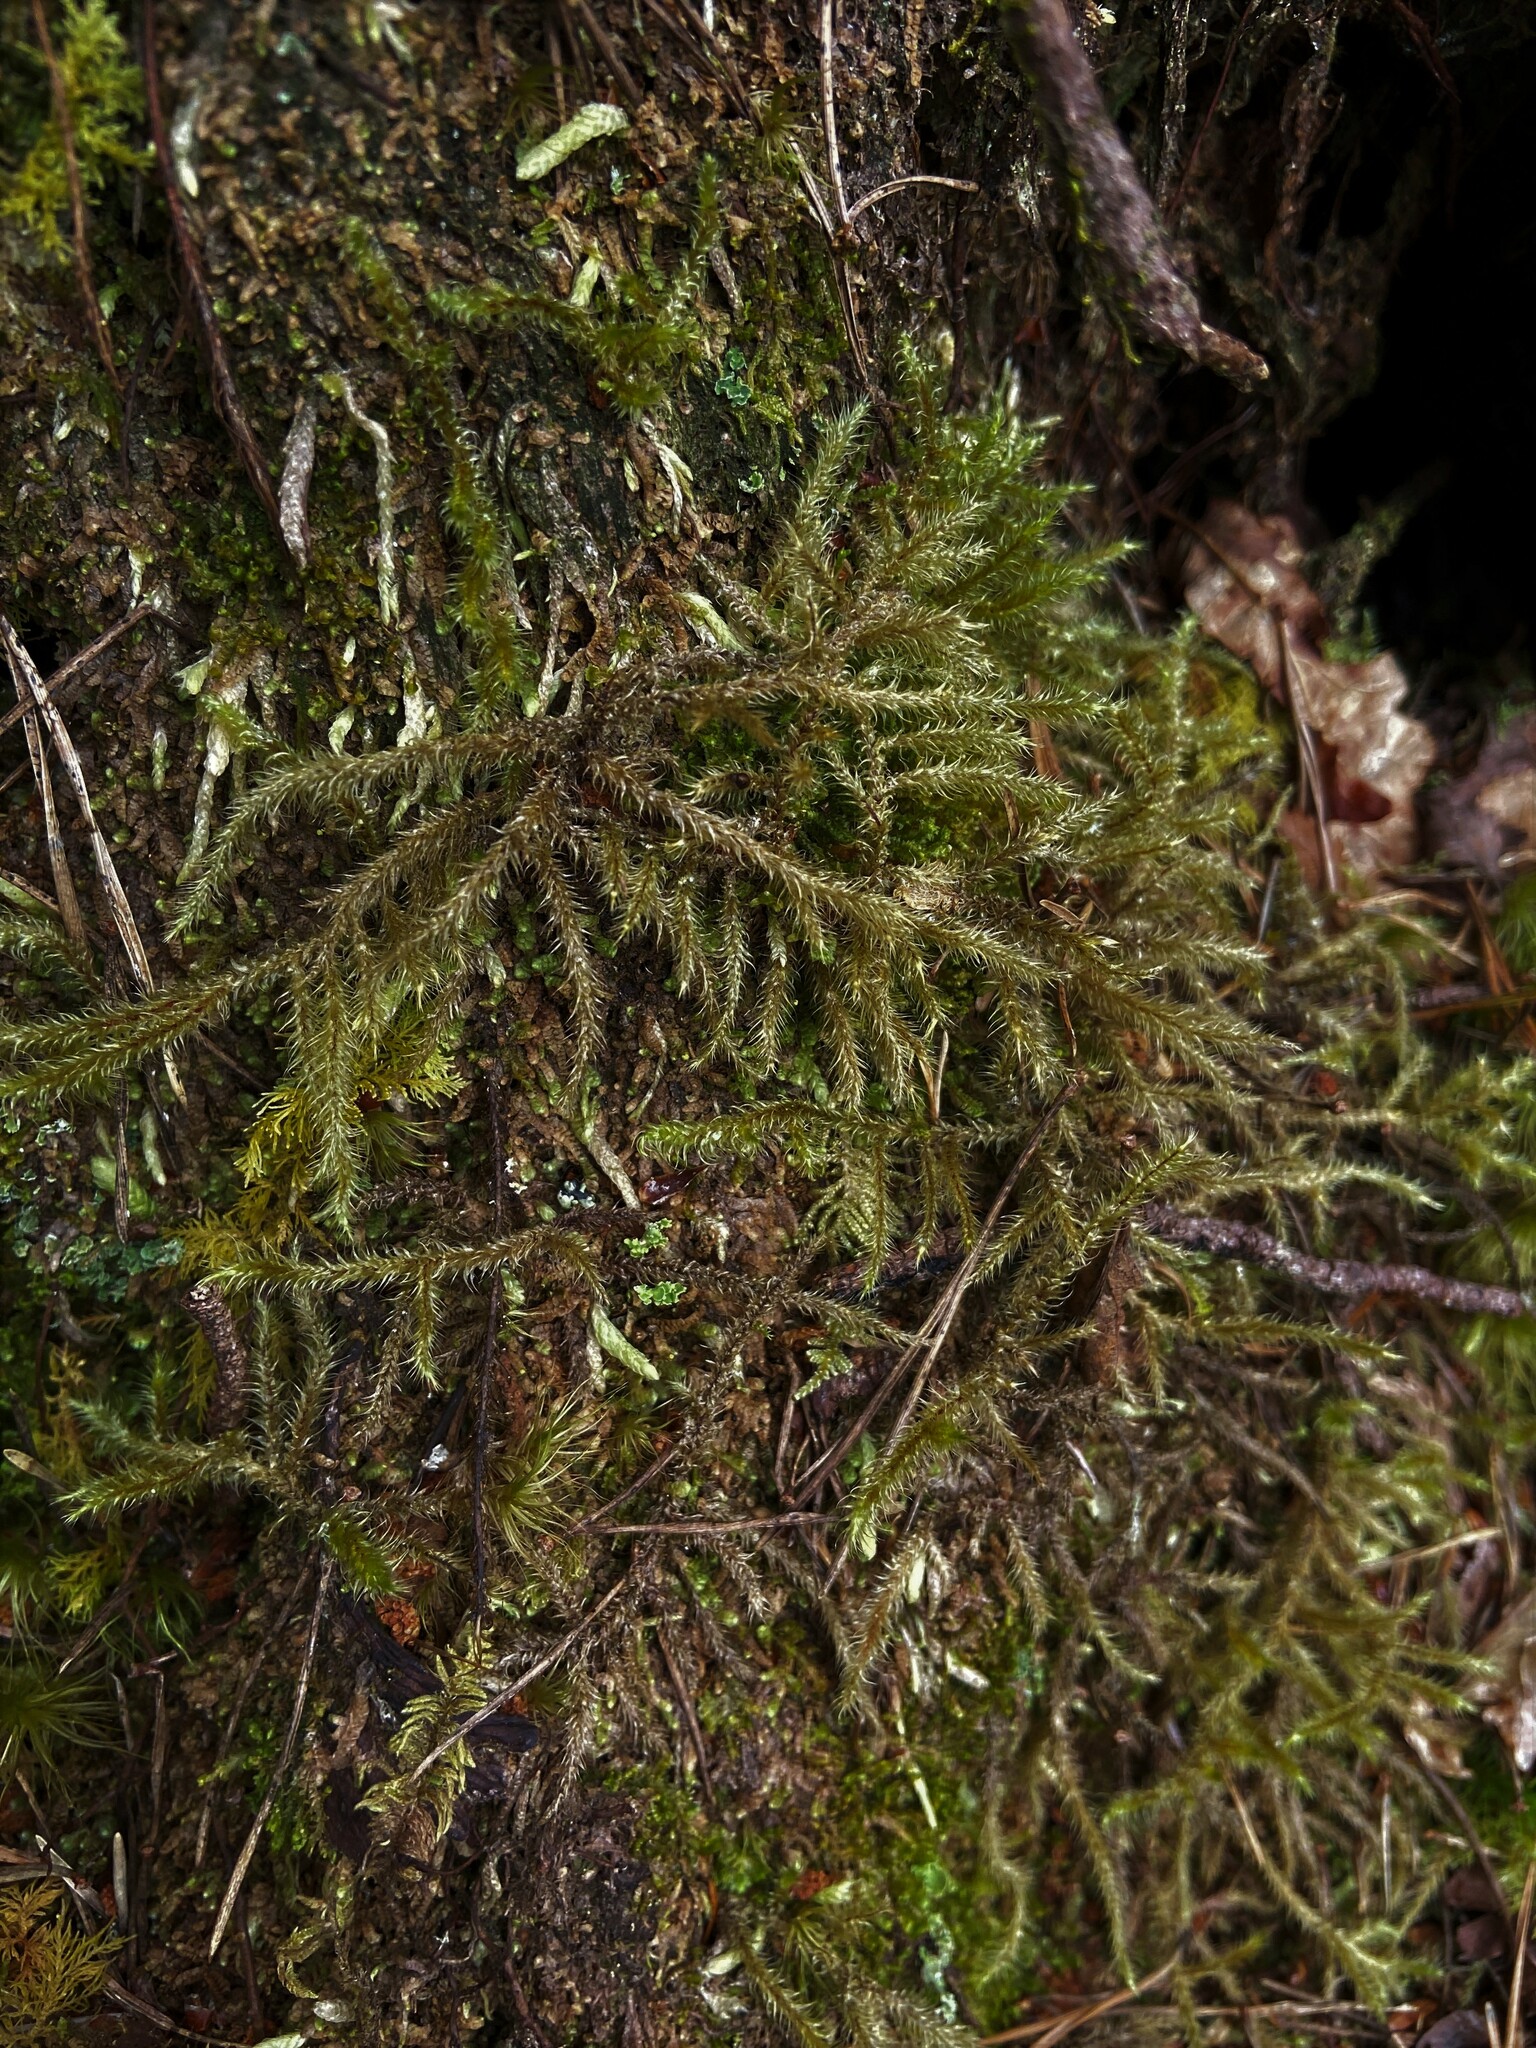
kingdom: Plantae
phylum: Bryophyta
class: Bryopsida
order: Hypnales
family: Hylocomiaceae
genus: Rhytidiadelphus
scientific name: Rhytidiadelphus loreus
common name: Lanky moss
